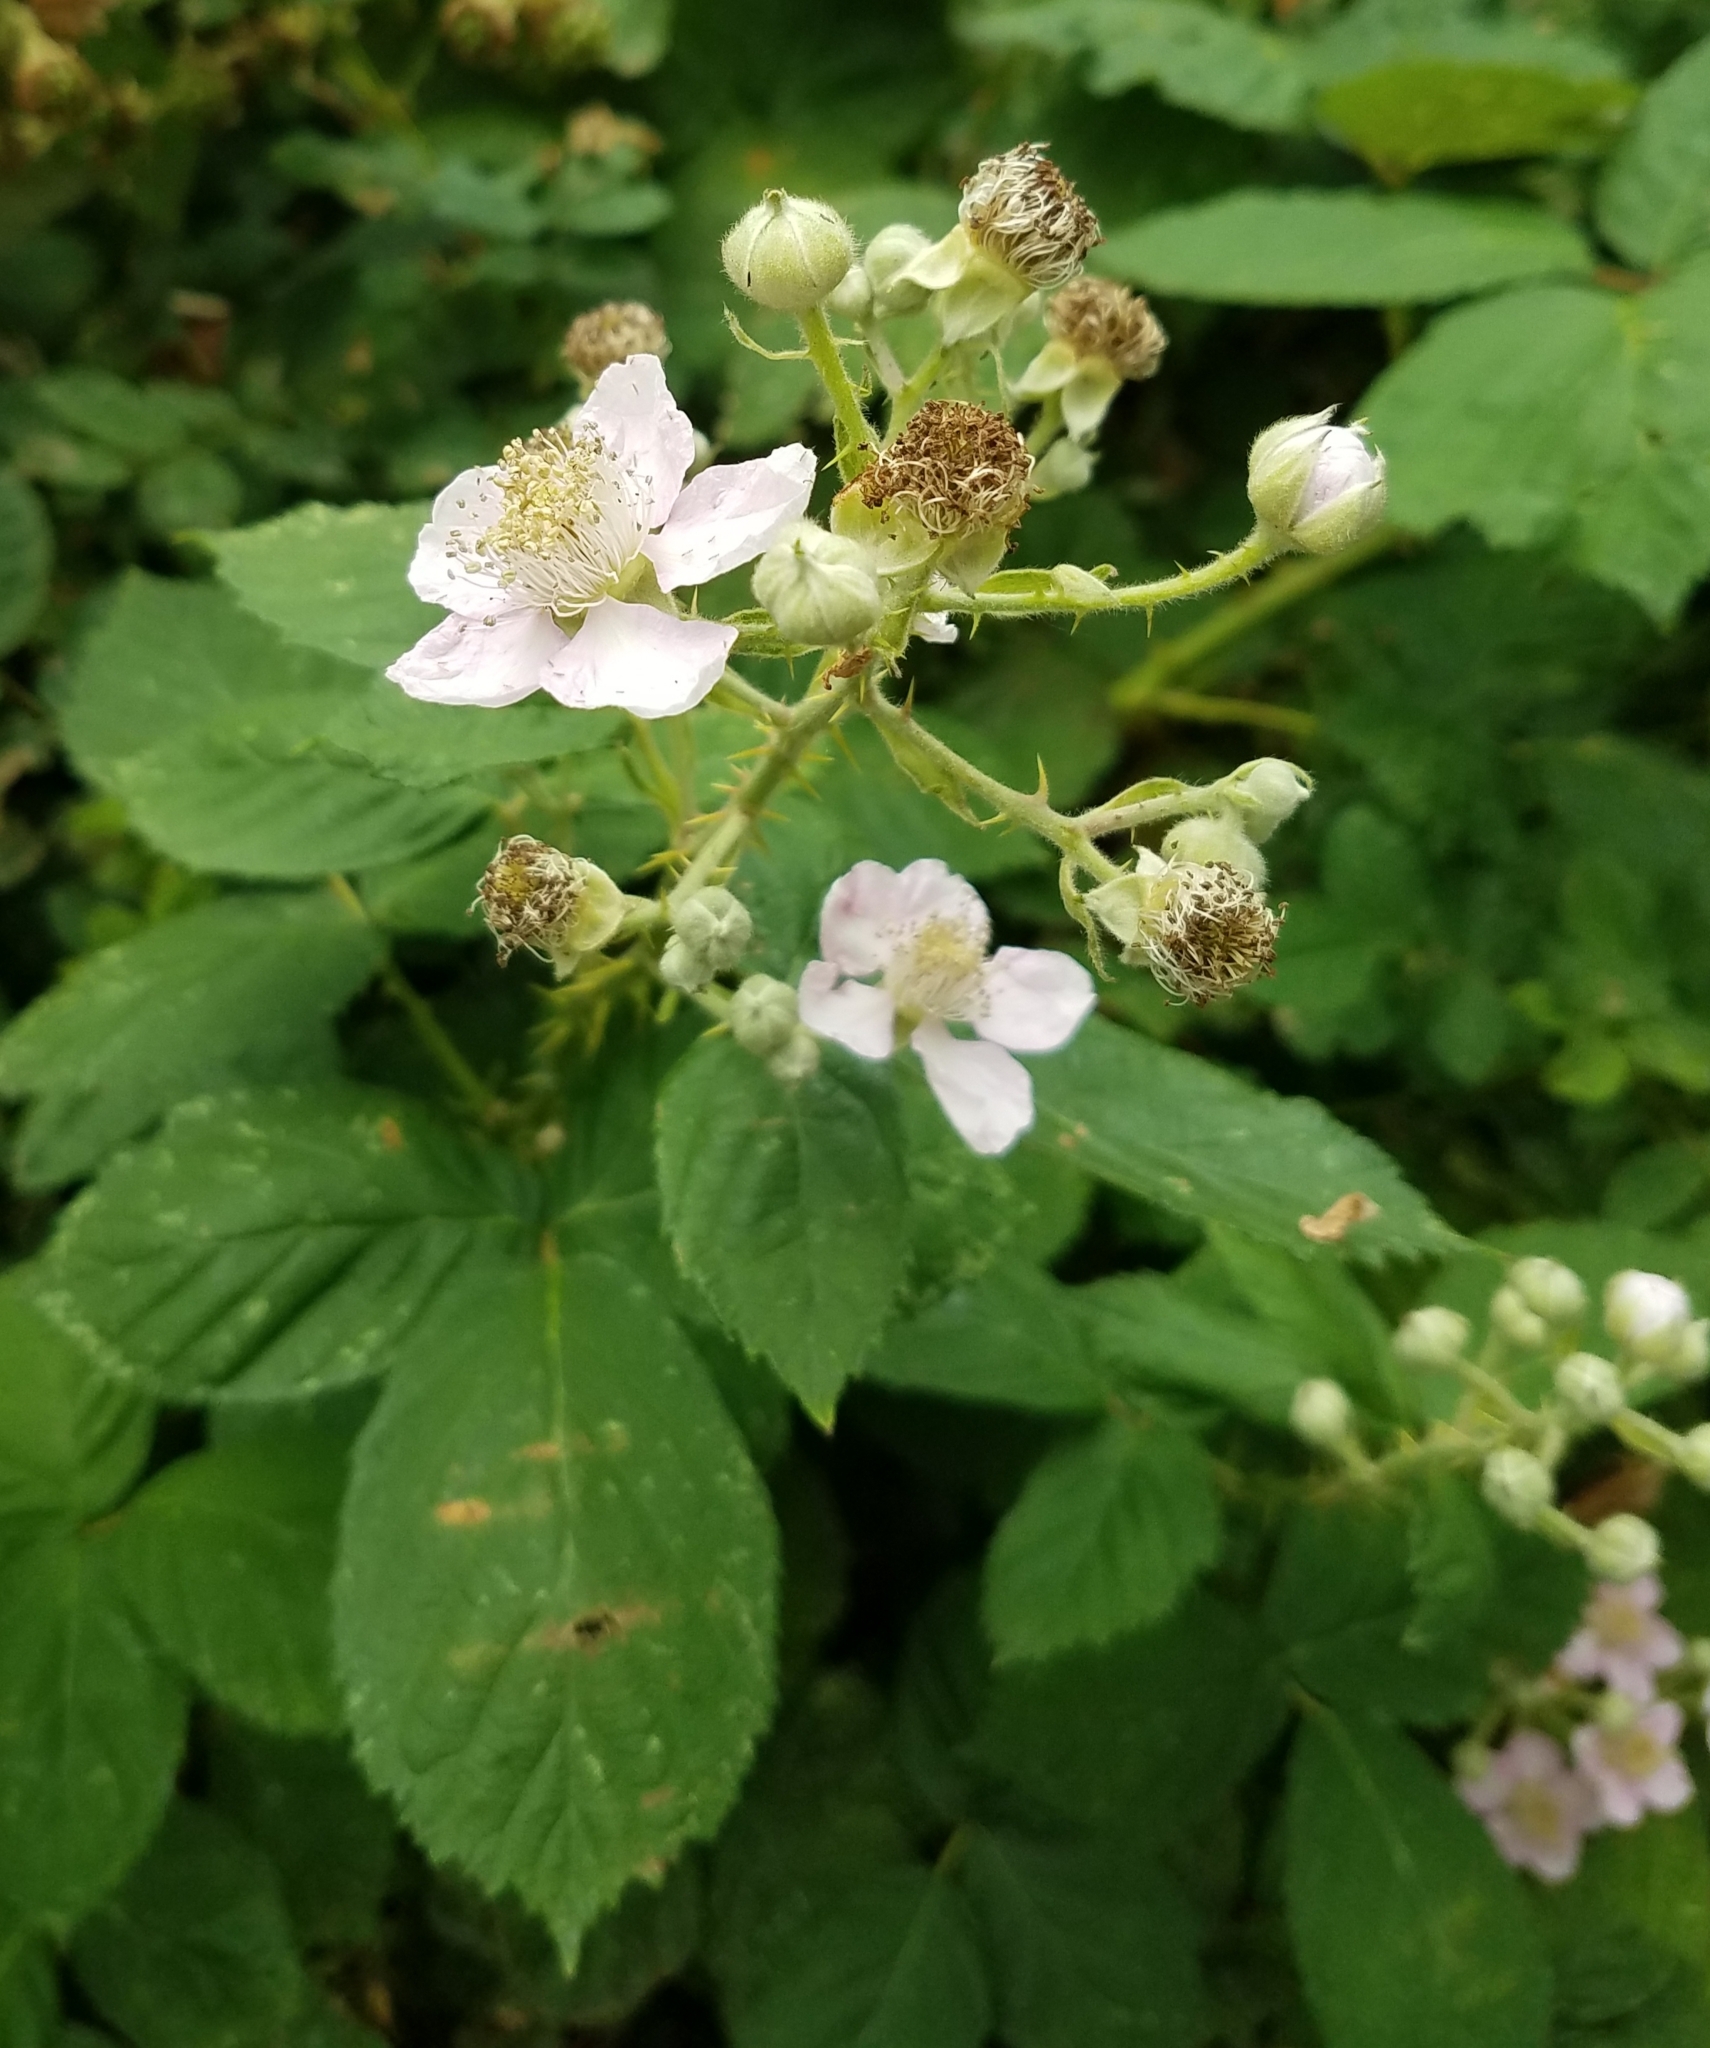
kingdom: Plantae
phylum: Tracheophyta
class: Magnoliopsida
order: Rosales
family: Rosaceae
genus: Rubus
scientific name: Rubus armeniacus
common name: Himalayan blackberry
